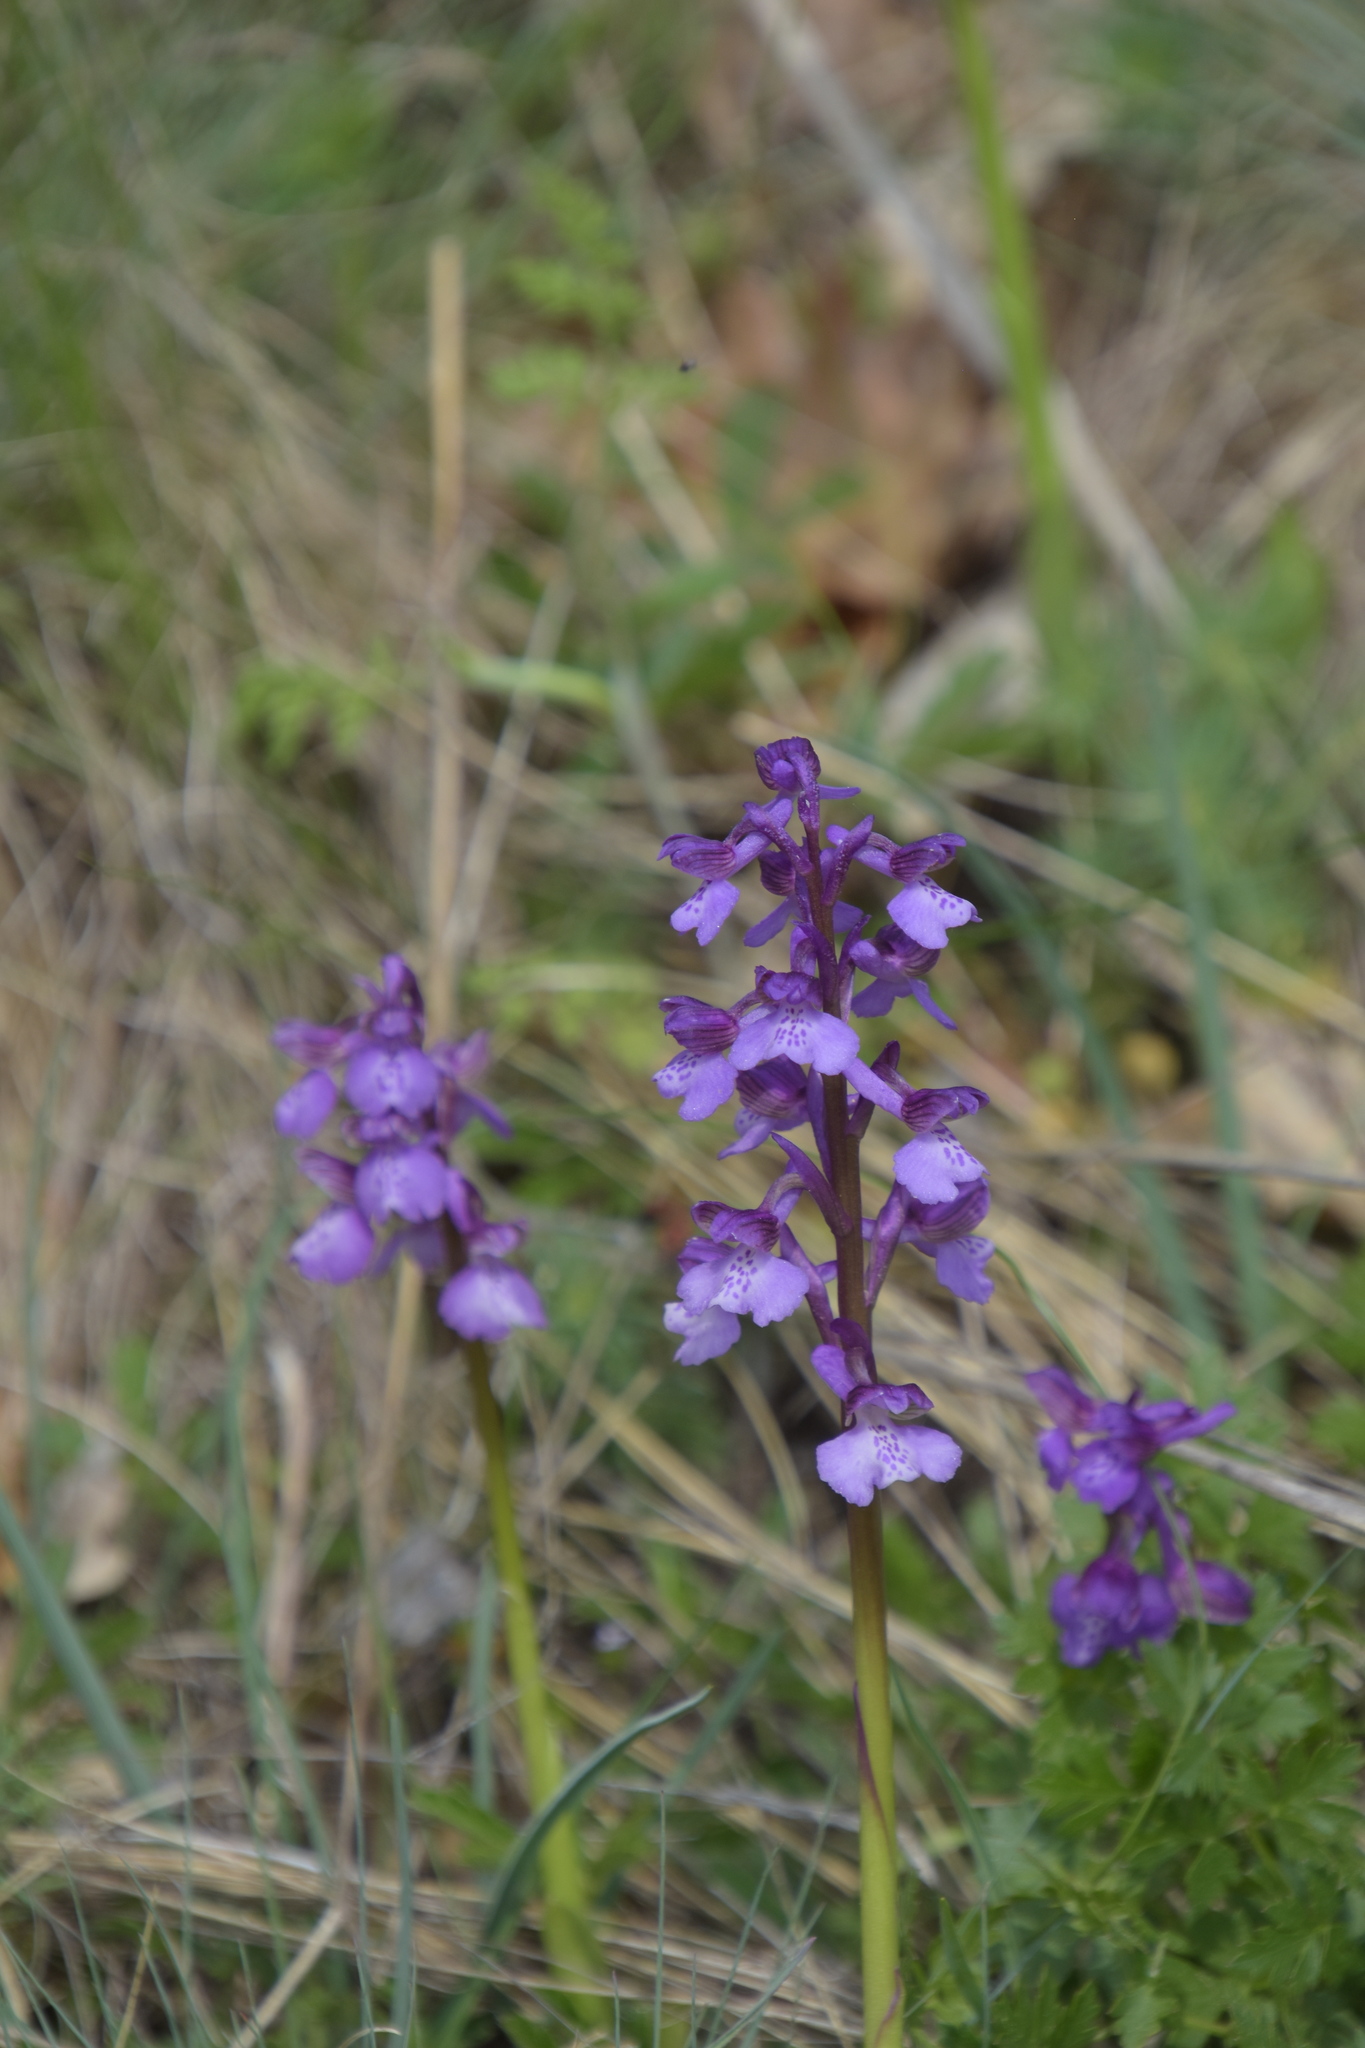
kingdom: Plantae
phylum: Tracheophyta
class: Liliopsida
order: Asparagales
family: Orchidaceae
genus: Anacamptis
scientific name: Anacamptis morio
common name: Green-winged orchid
